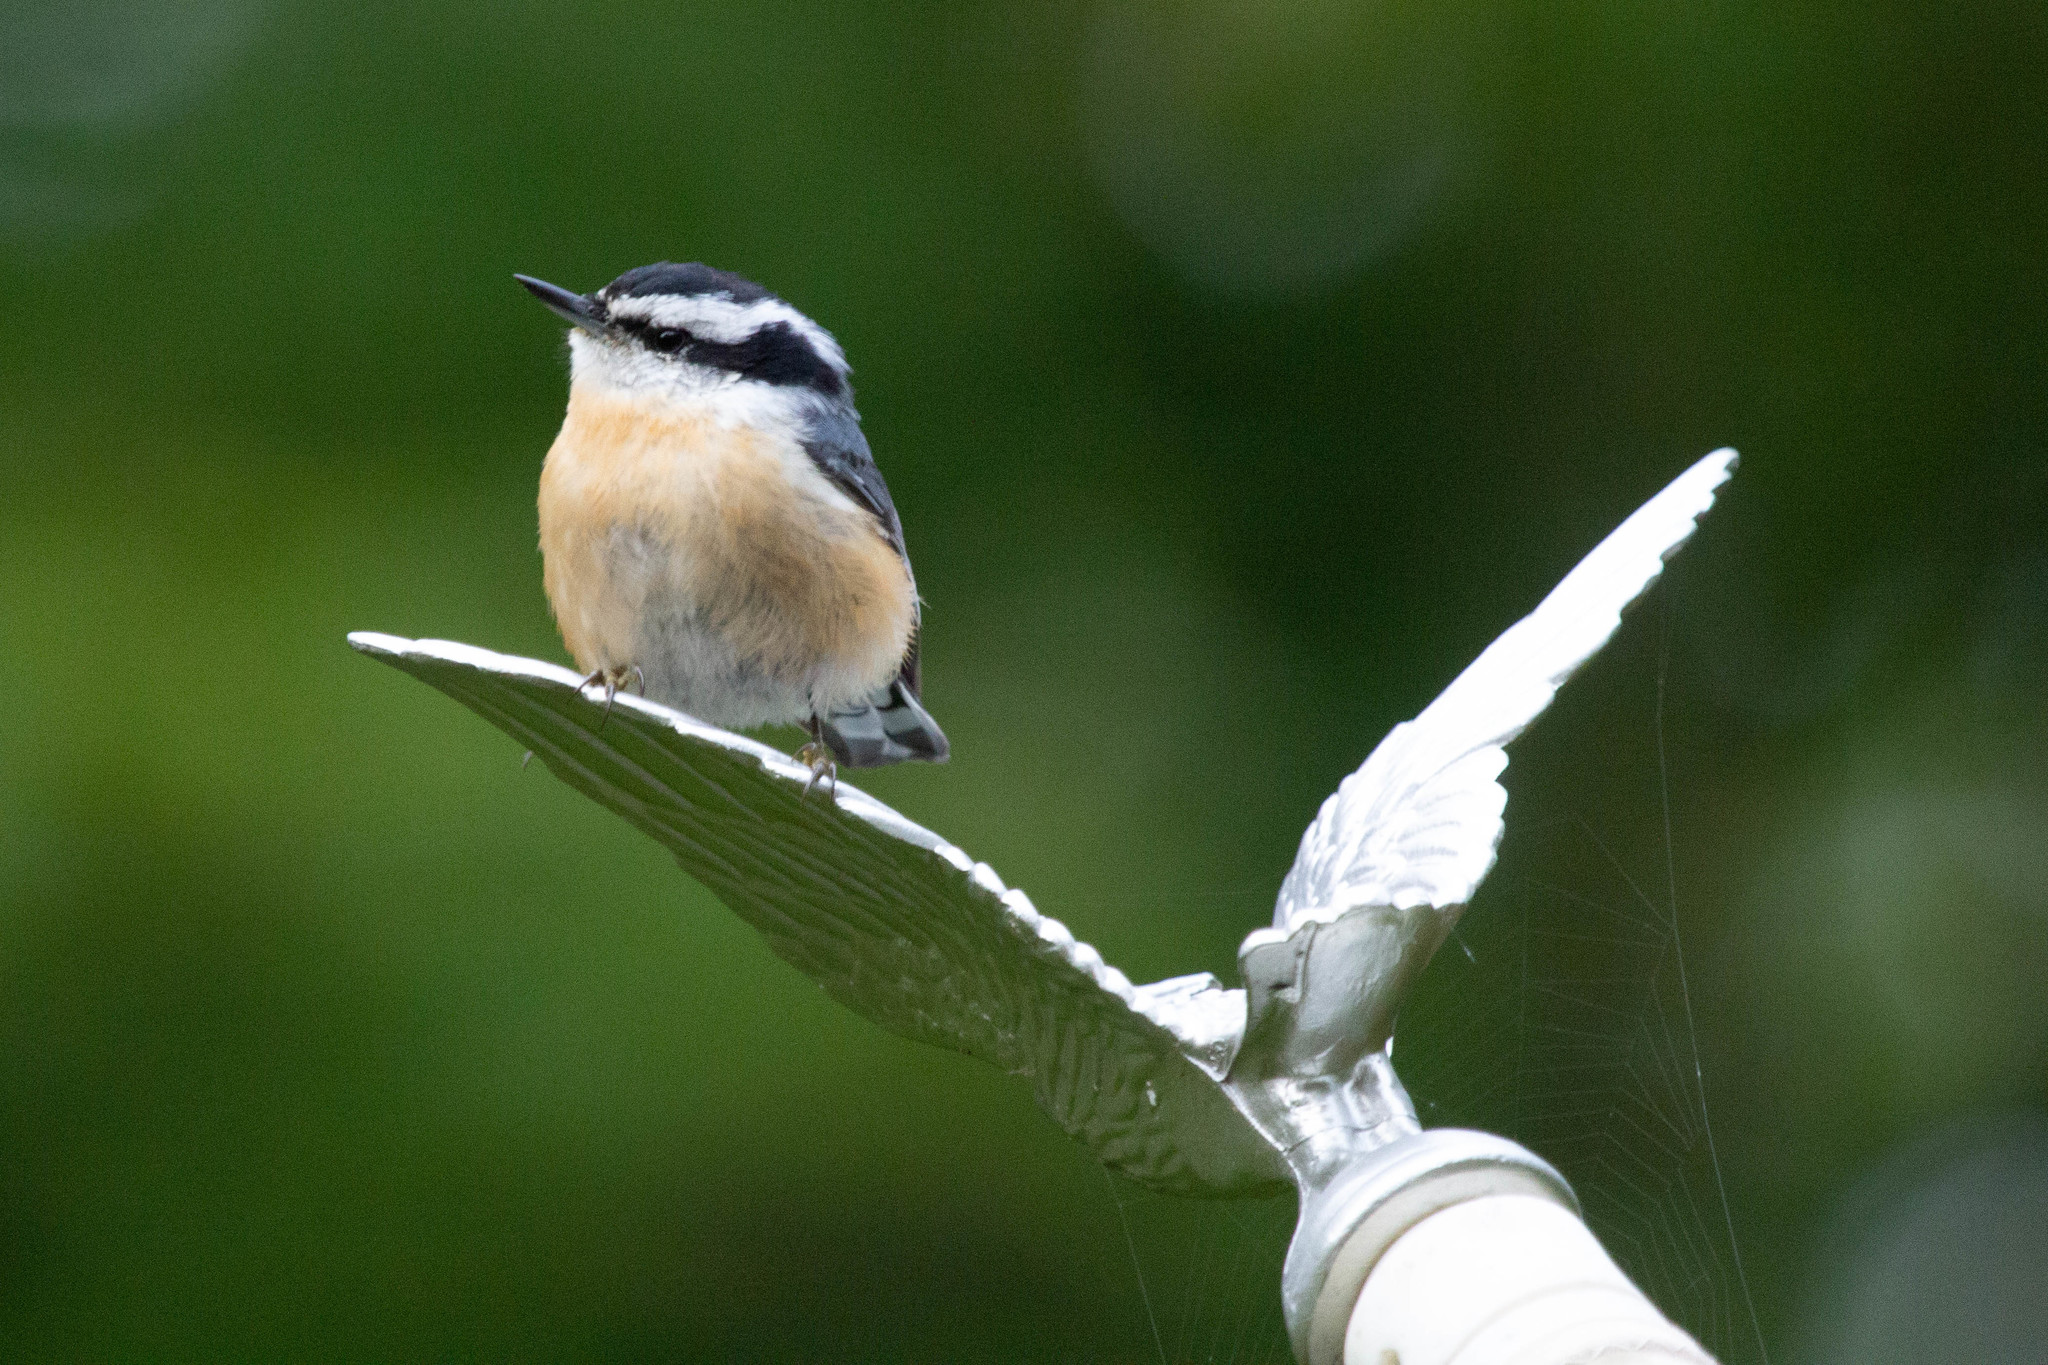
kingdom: Animalia
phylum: Chordata
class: Aves
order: Passeriformes
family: Sittidae
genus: Sitta
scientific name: Sitta canadensis
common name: Red-breasted nuthatch
